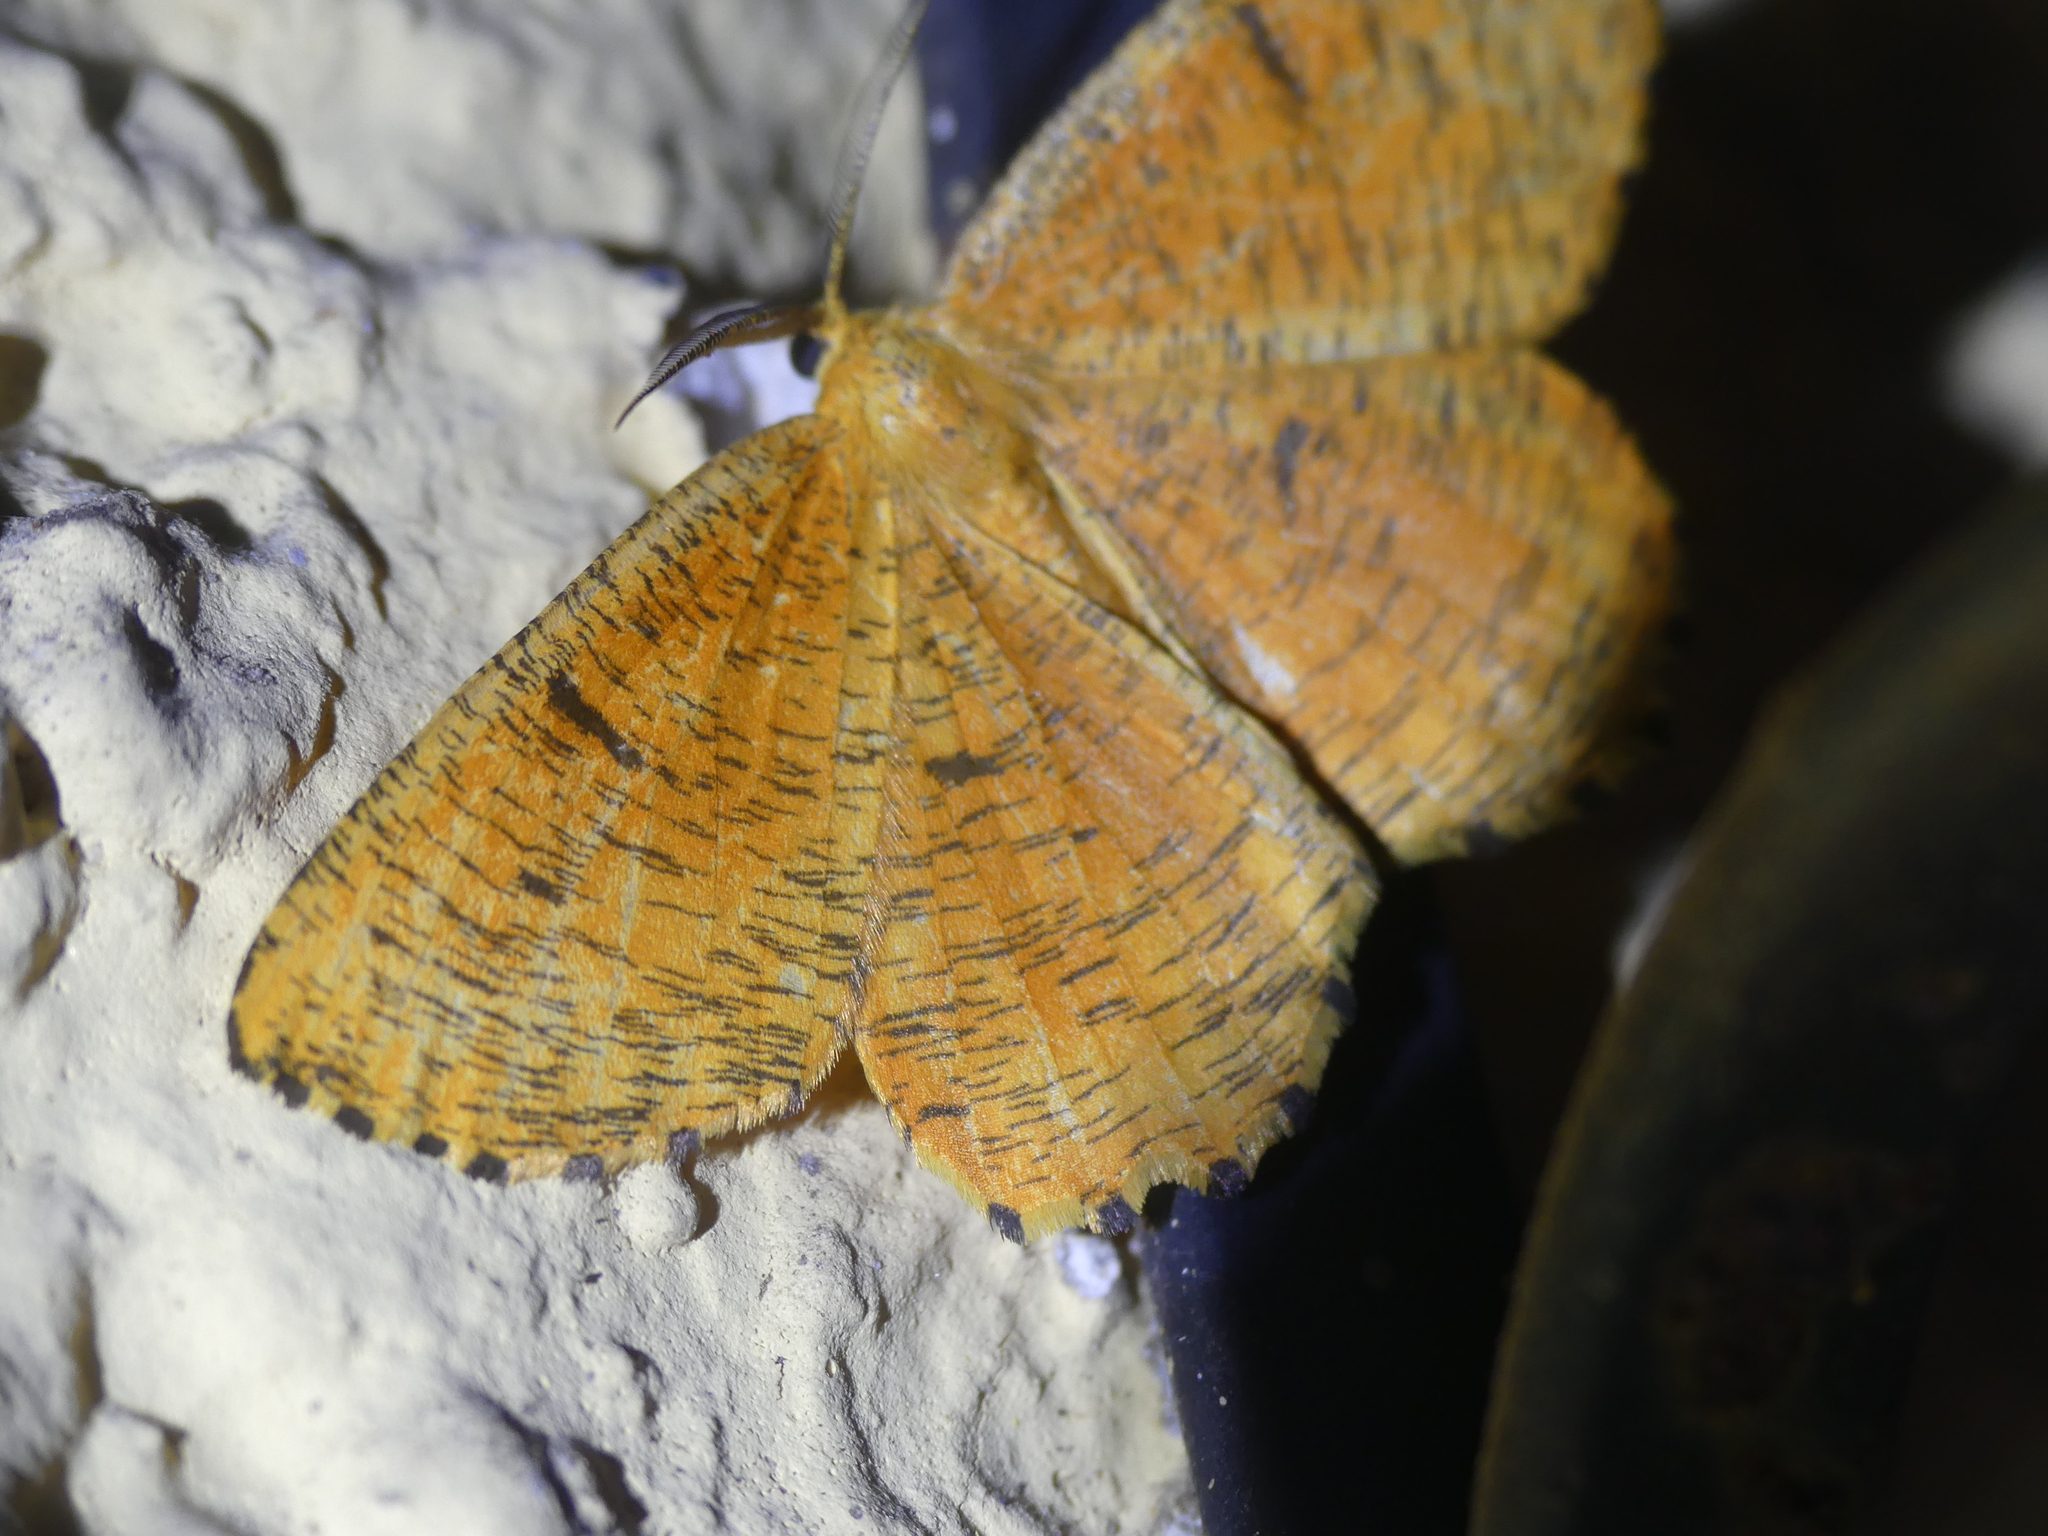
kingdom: Animalia
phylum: Arthropoda
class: Insecta
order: Lepidoptera
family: Geometridae
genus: Angerona
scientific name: Angerona prunaria
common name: Orange moth
